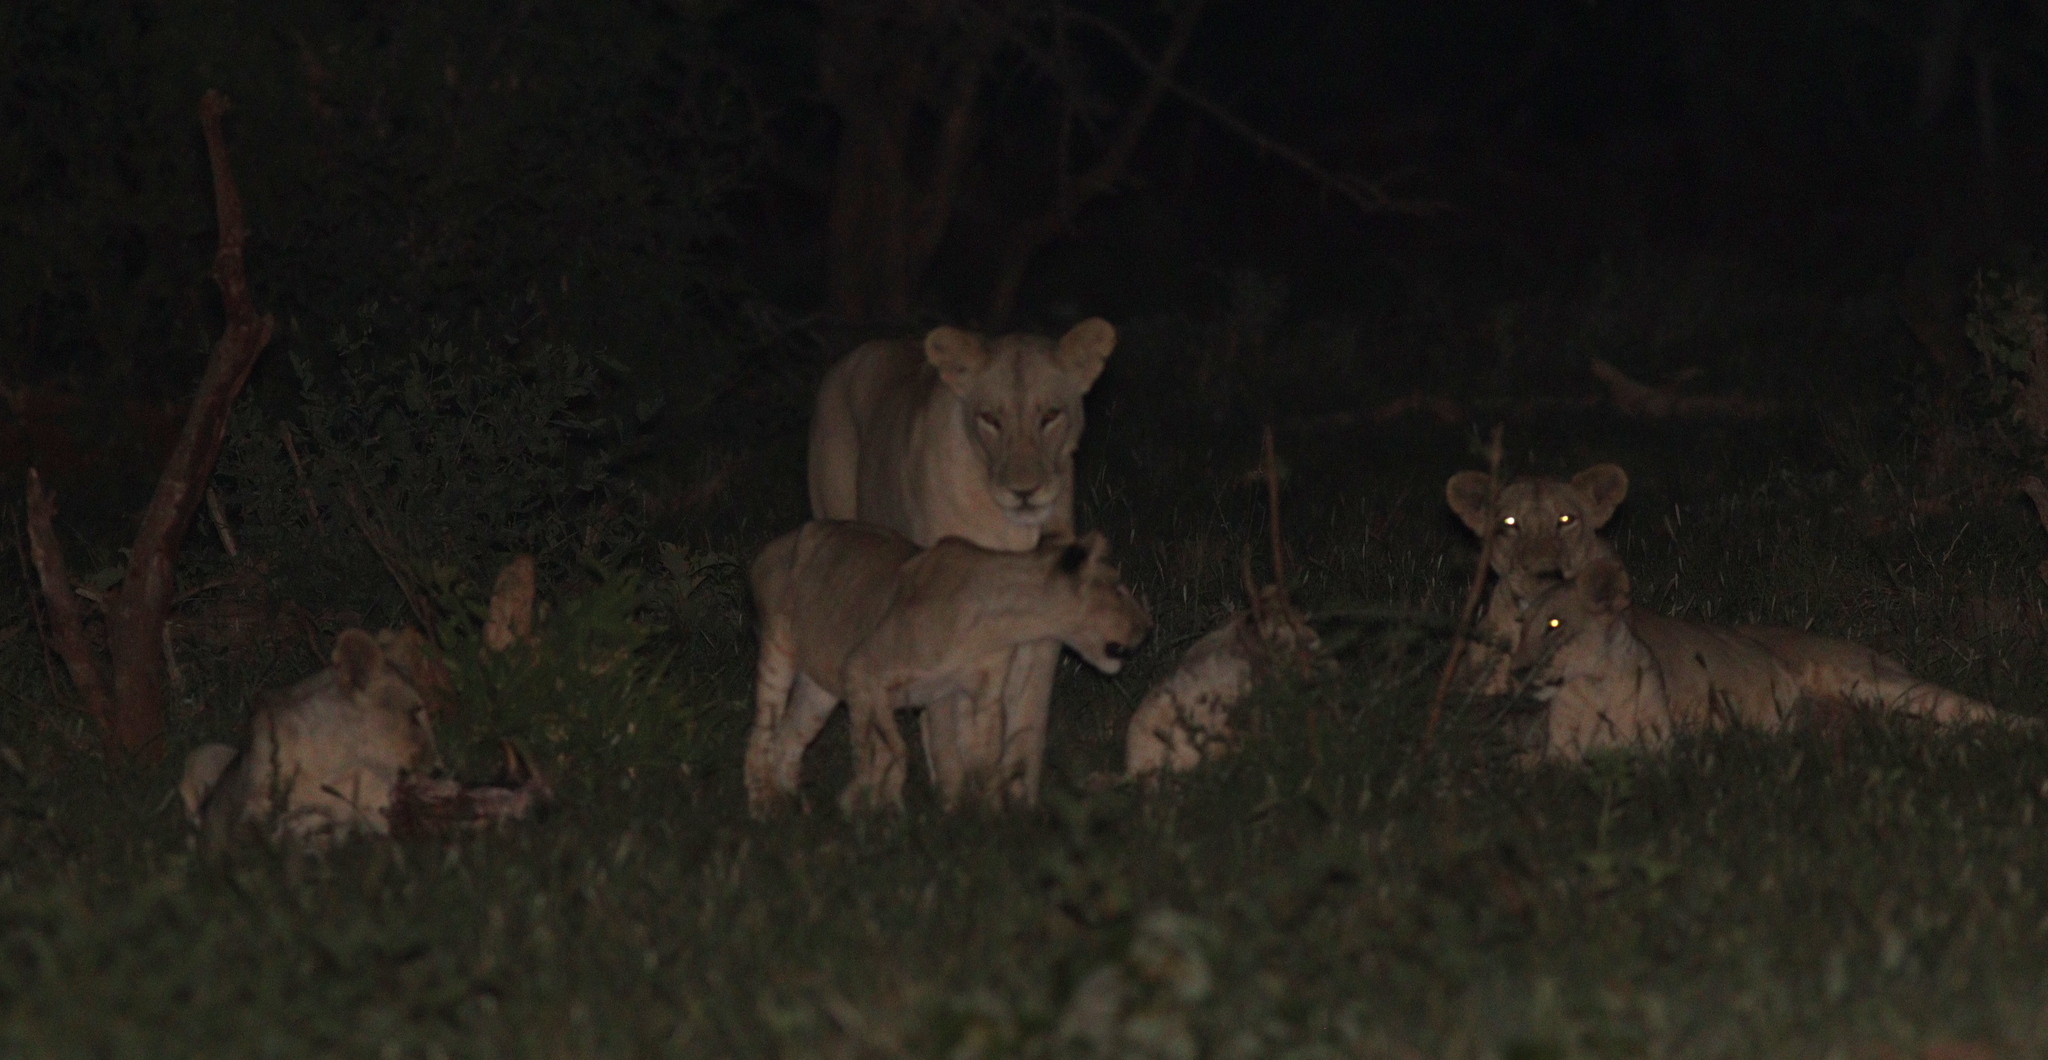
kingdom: Animalia
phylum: Chordata
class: Mammalia
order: Carnivora
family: Felidae
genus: Panthera
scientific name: Panthera leo
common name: Lion
